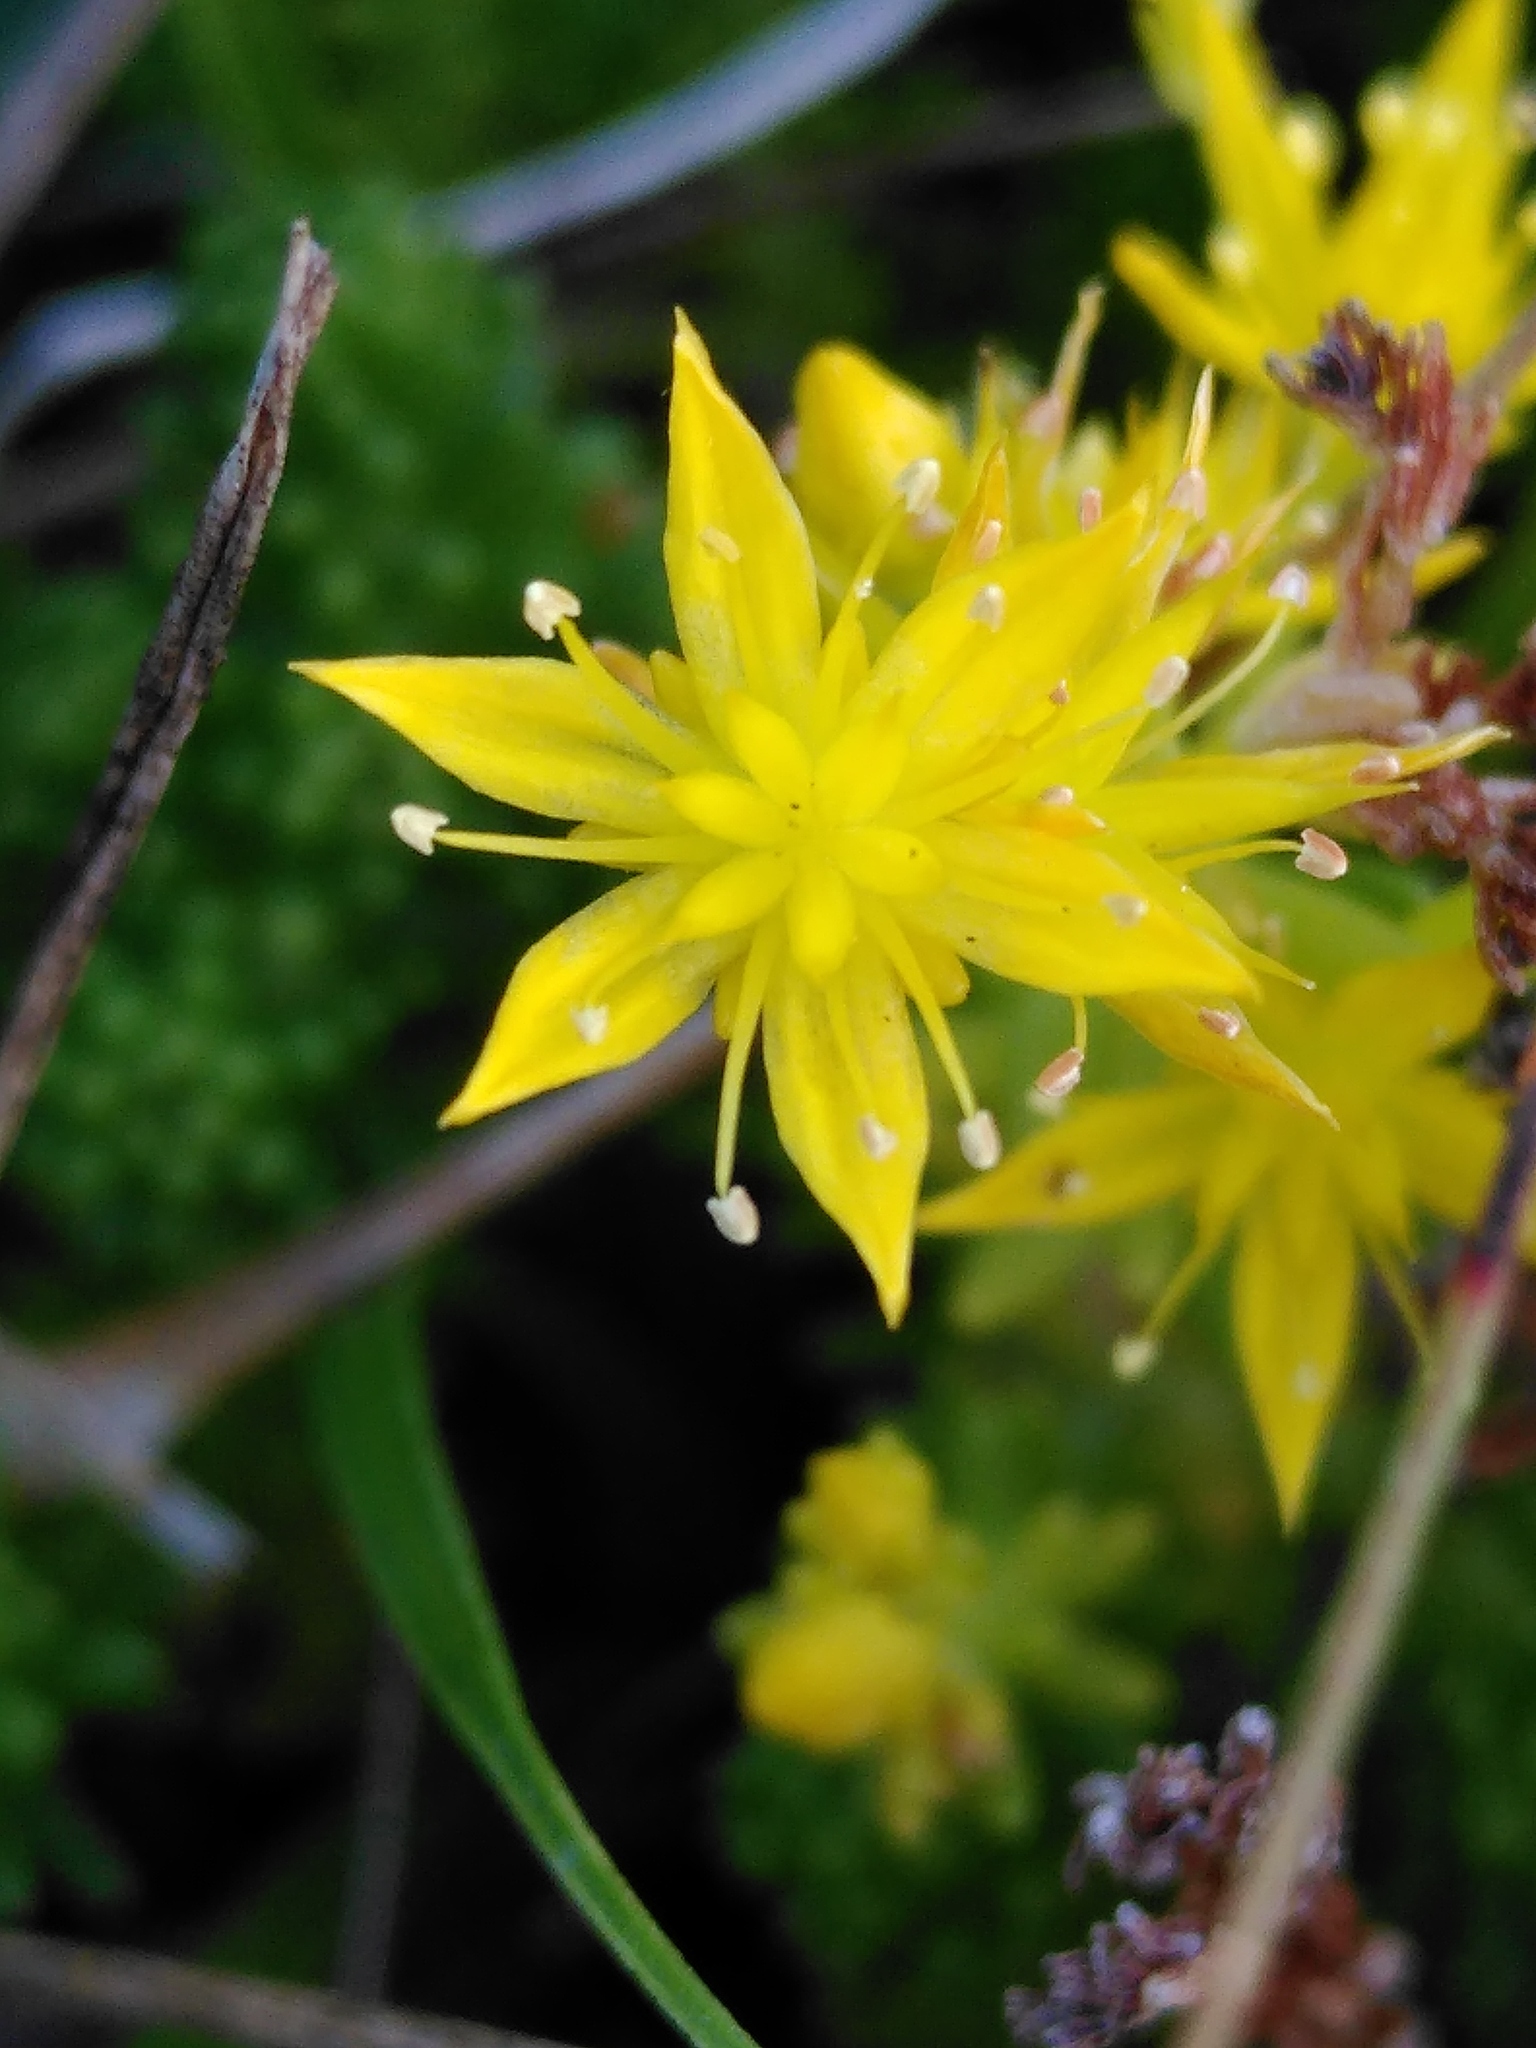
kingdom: Plantae
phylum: Tracheophyta
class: Magnoliopsida
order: Saxifragales
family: Crassulaceae
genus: Sedum
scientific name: Sedum sexangulare
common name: Tasteless stonecrop
